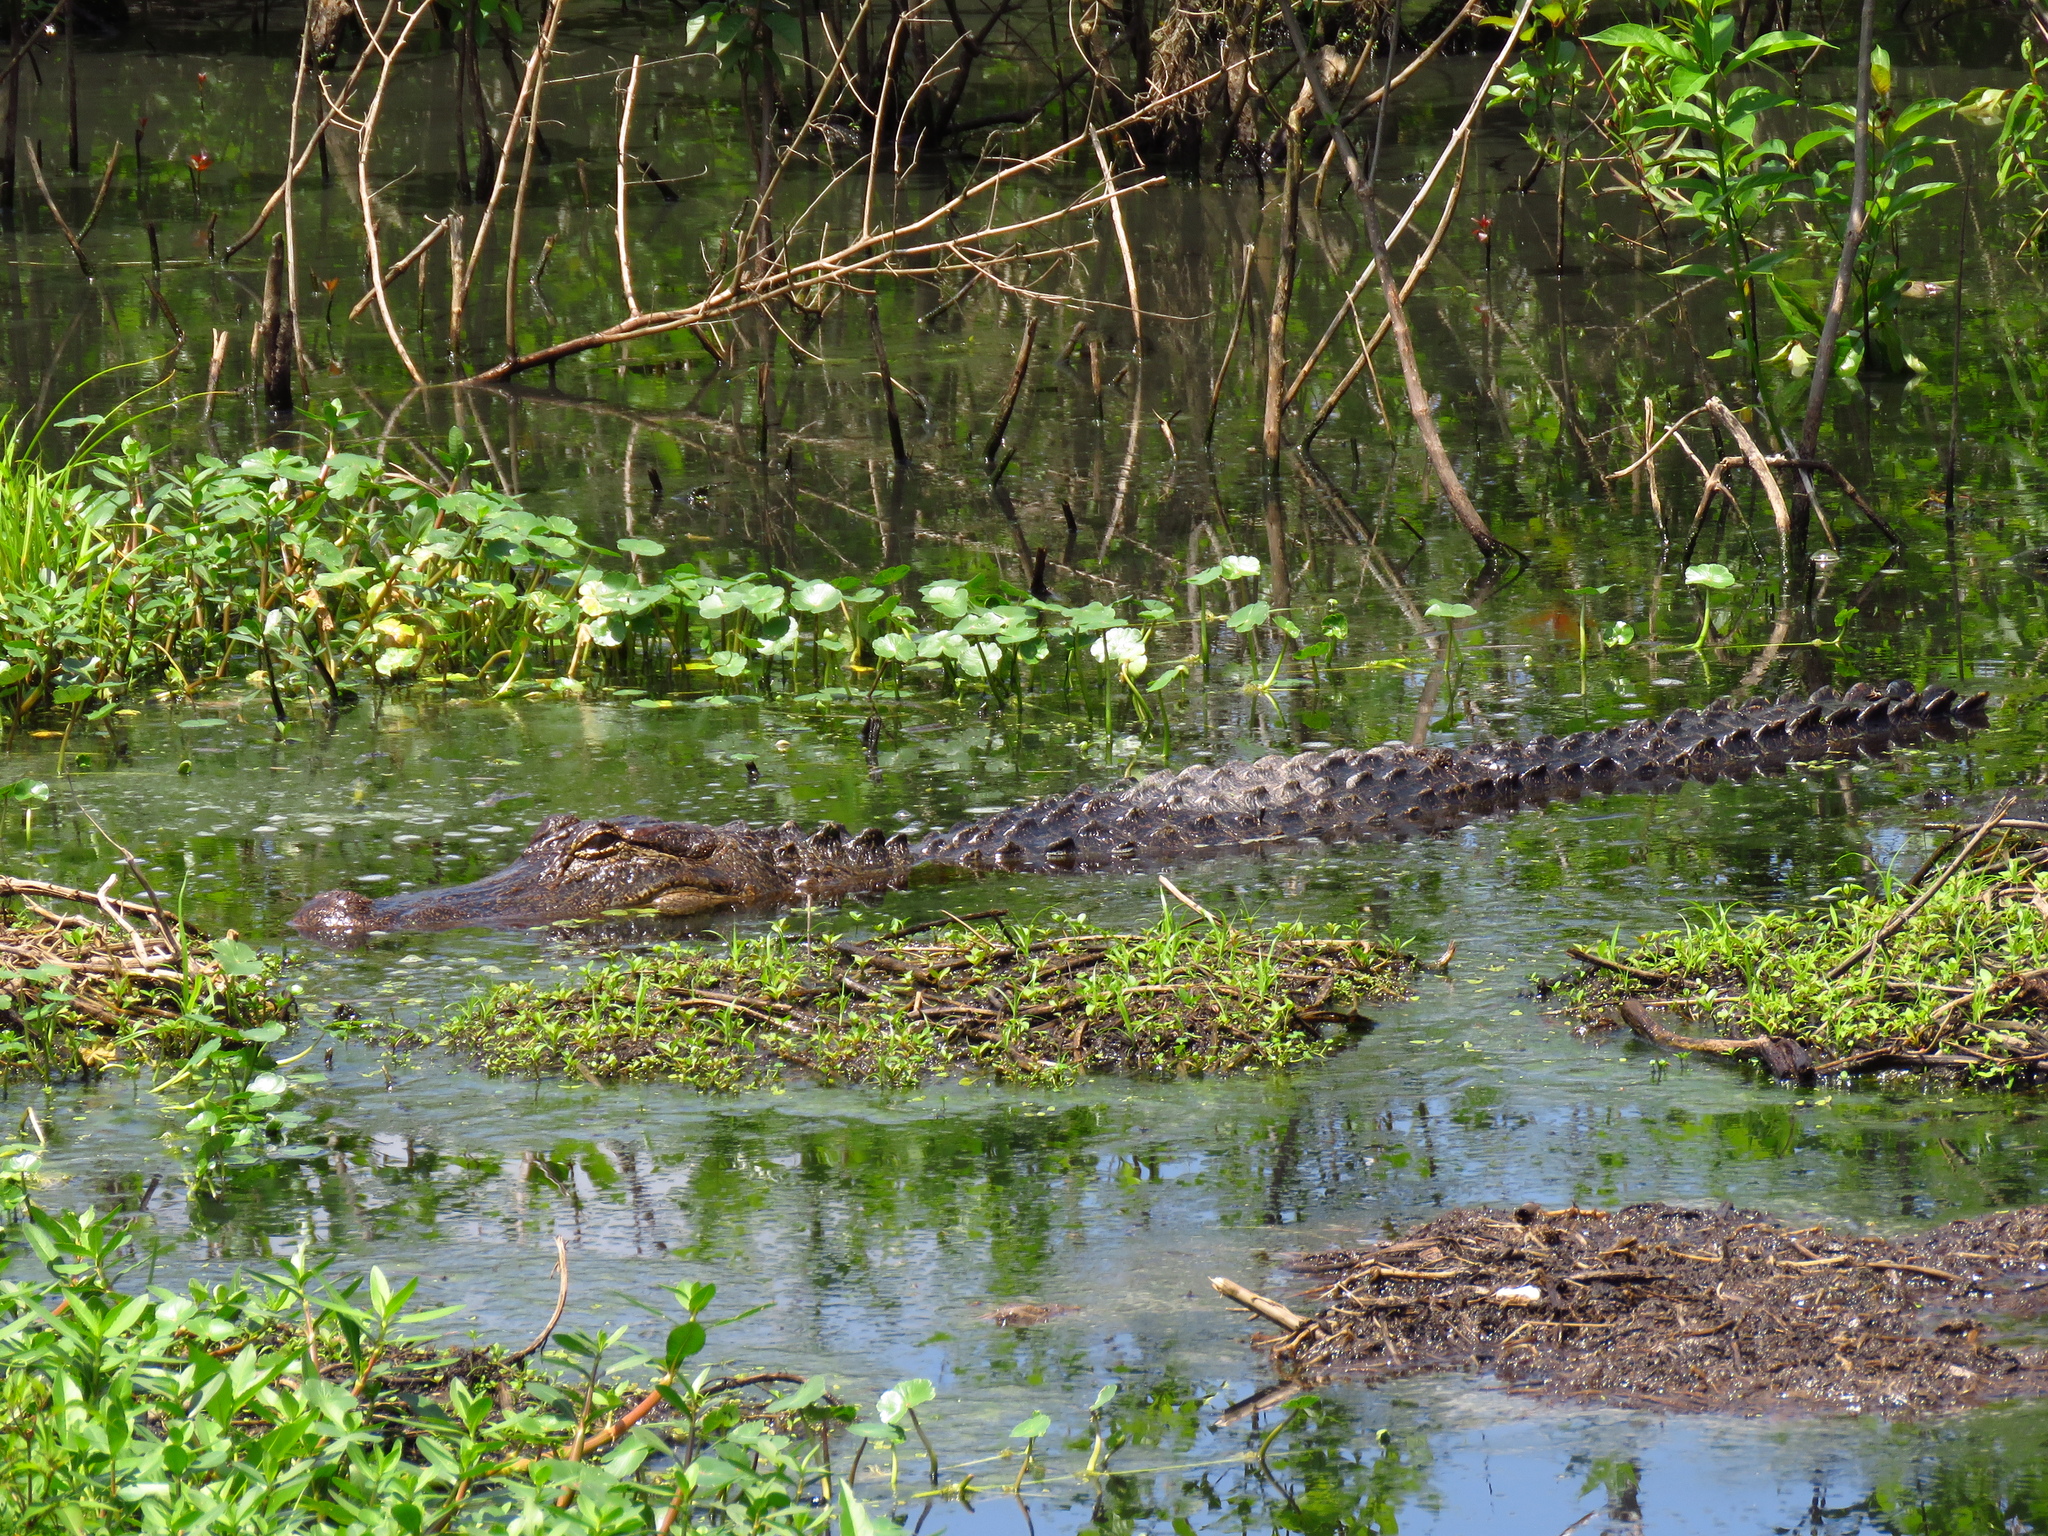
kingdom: Animalia
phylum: Chordata
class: Crocodylia
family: Alligatoridae
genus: Alligator
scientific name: Alligator mississippiensis
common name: American alligator
